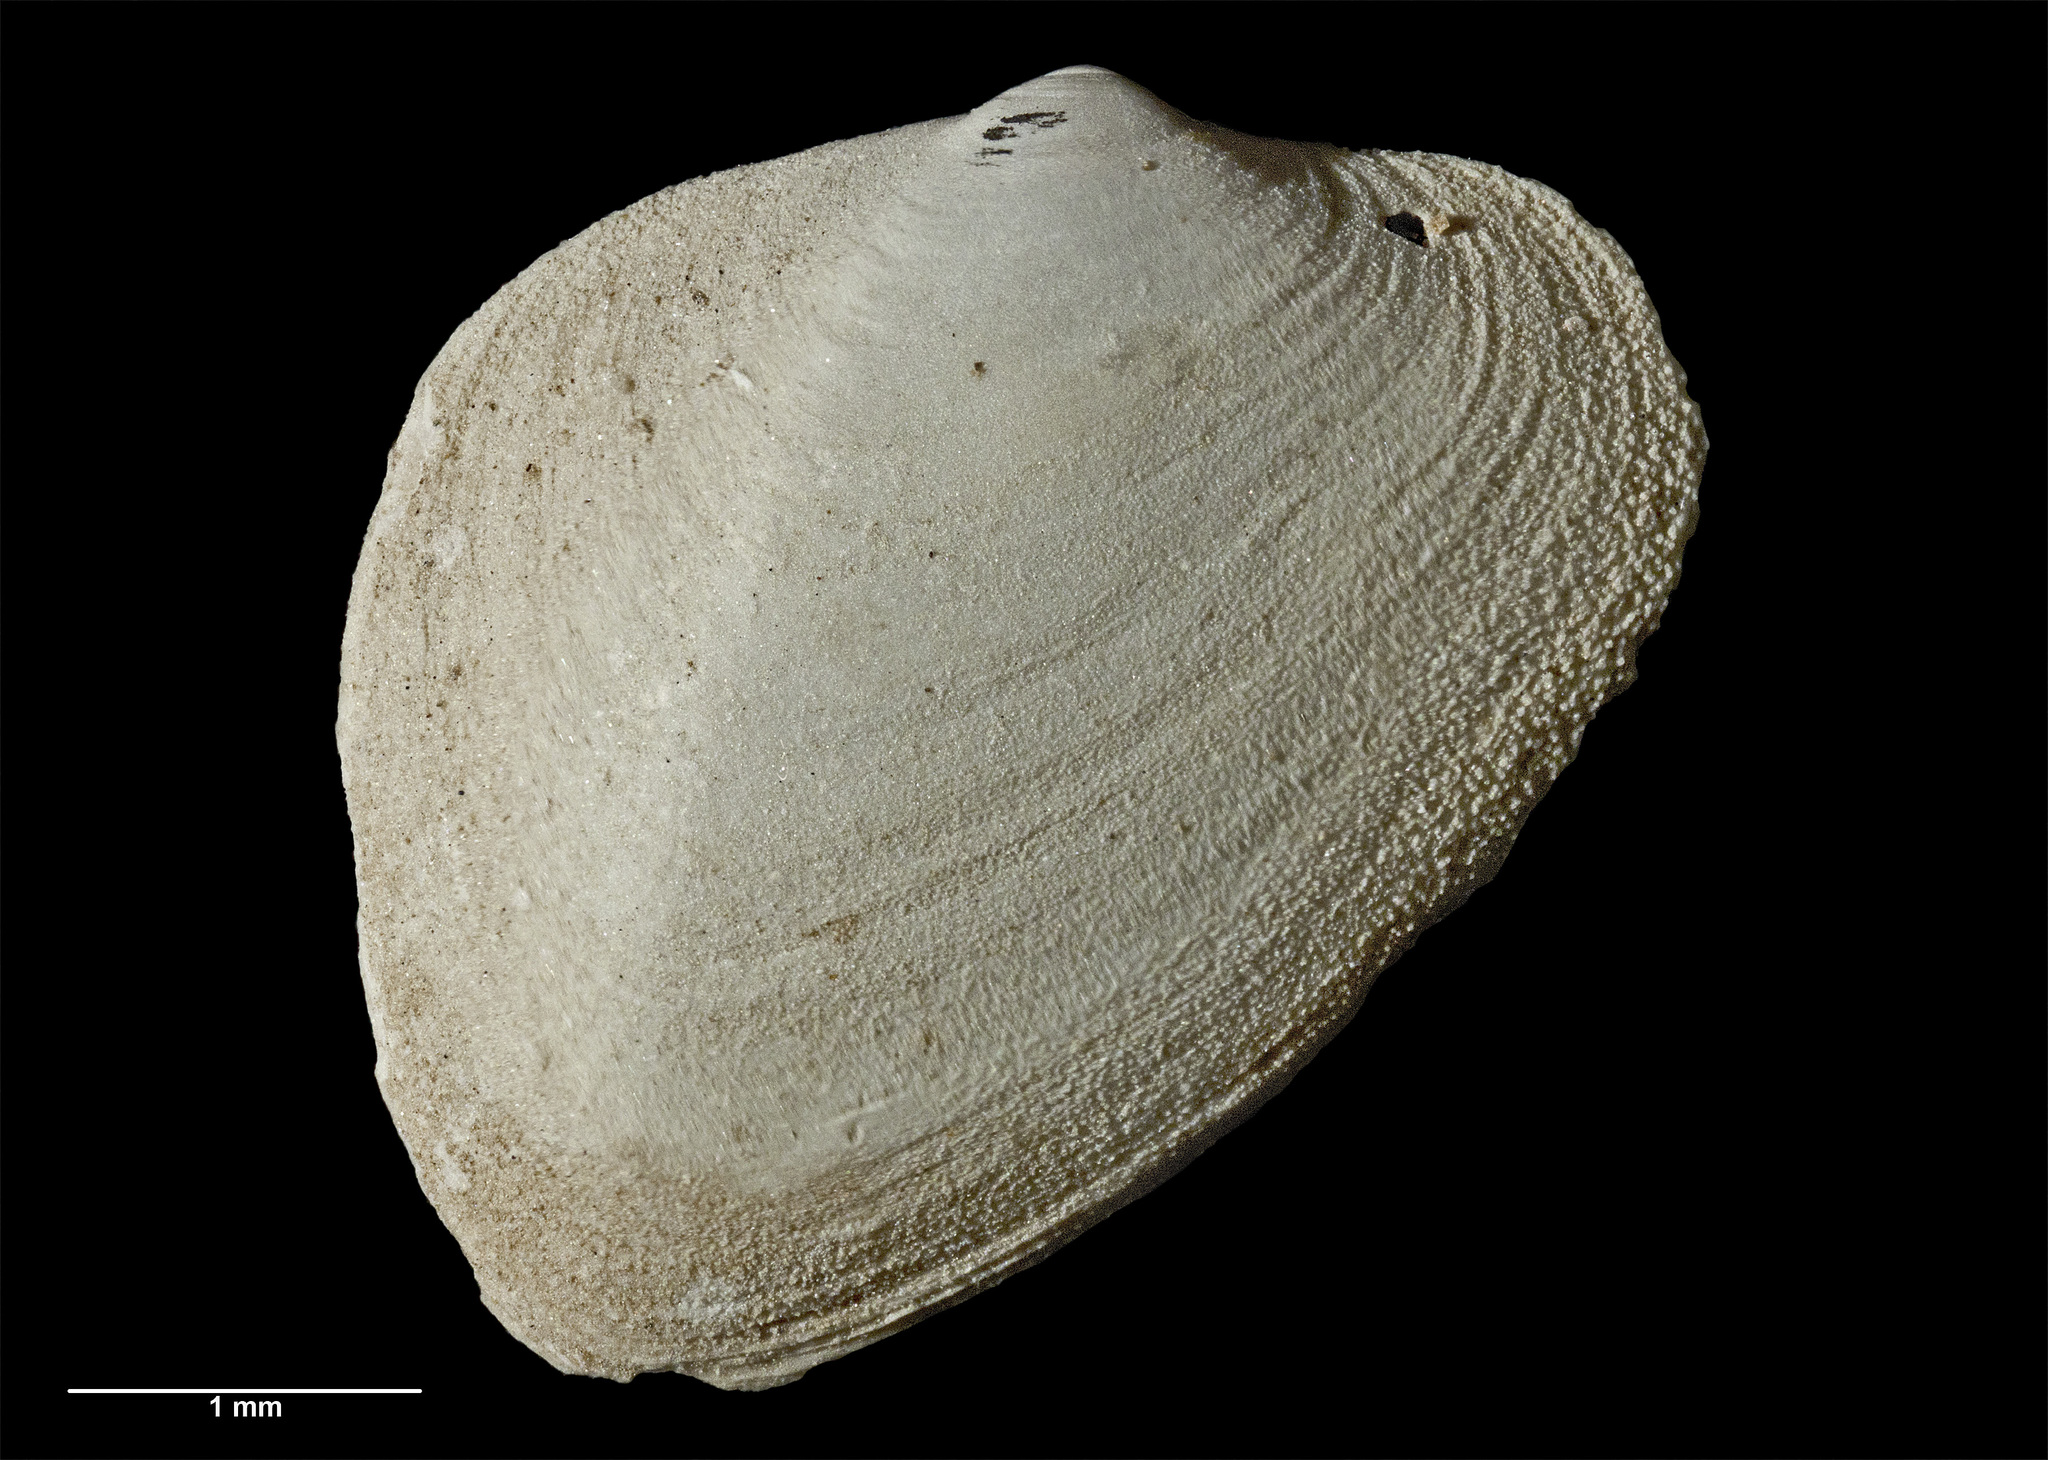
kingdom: Animalia
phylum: Mollusca
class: Bivalvia
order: Galeommatida
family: Basterotiidae
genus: Anisodonta
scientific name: Anisodonta alata
